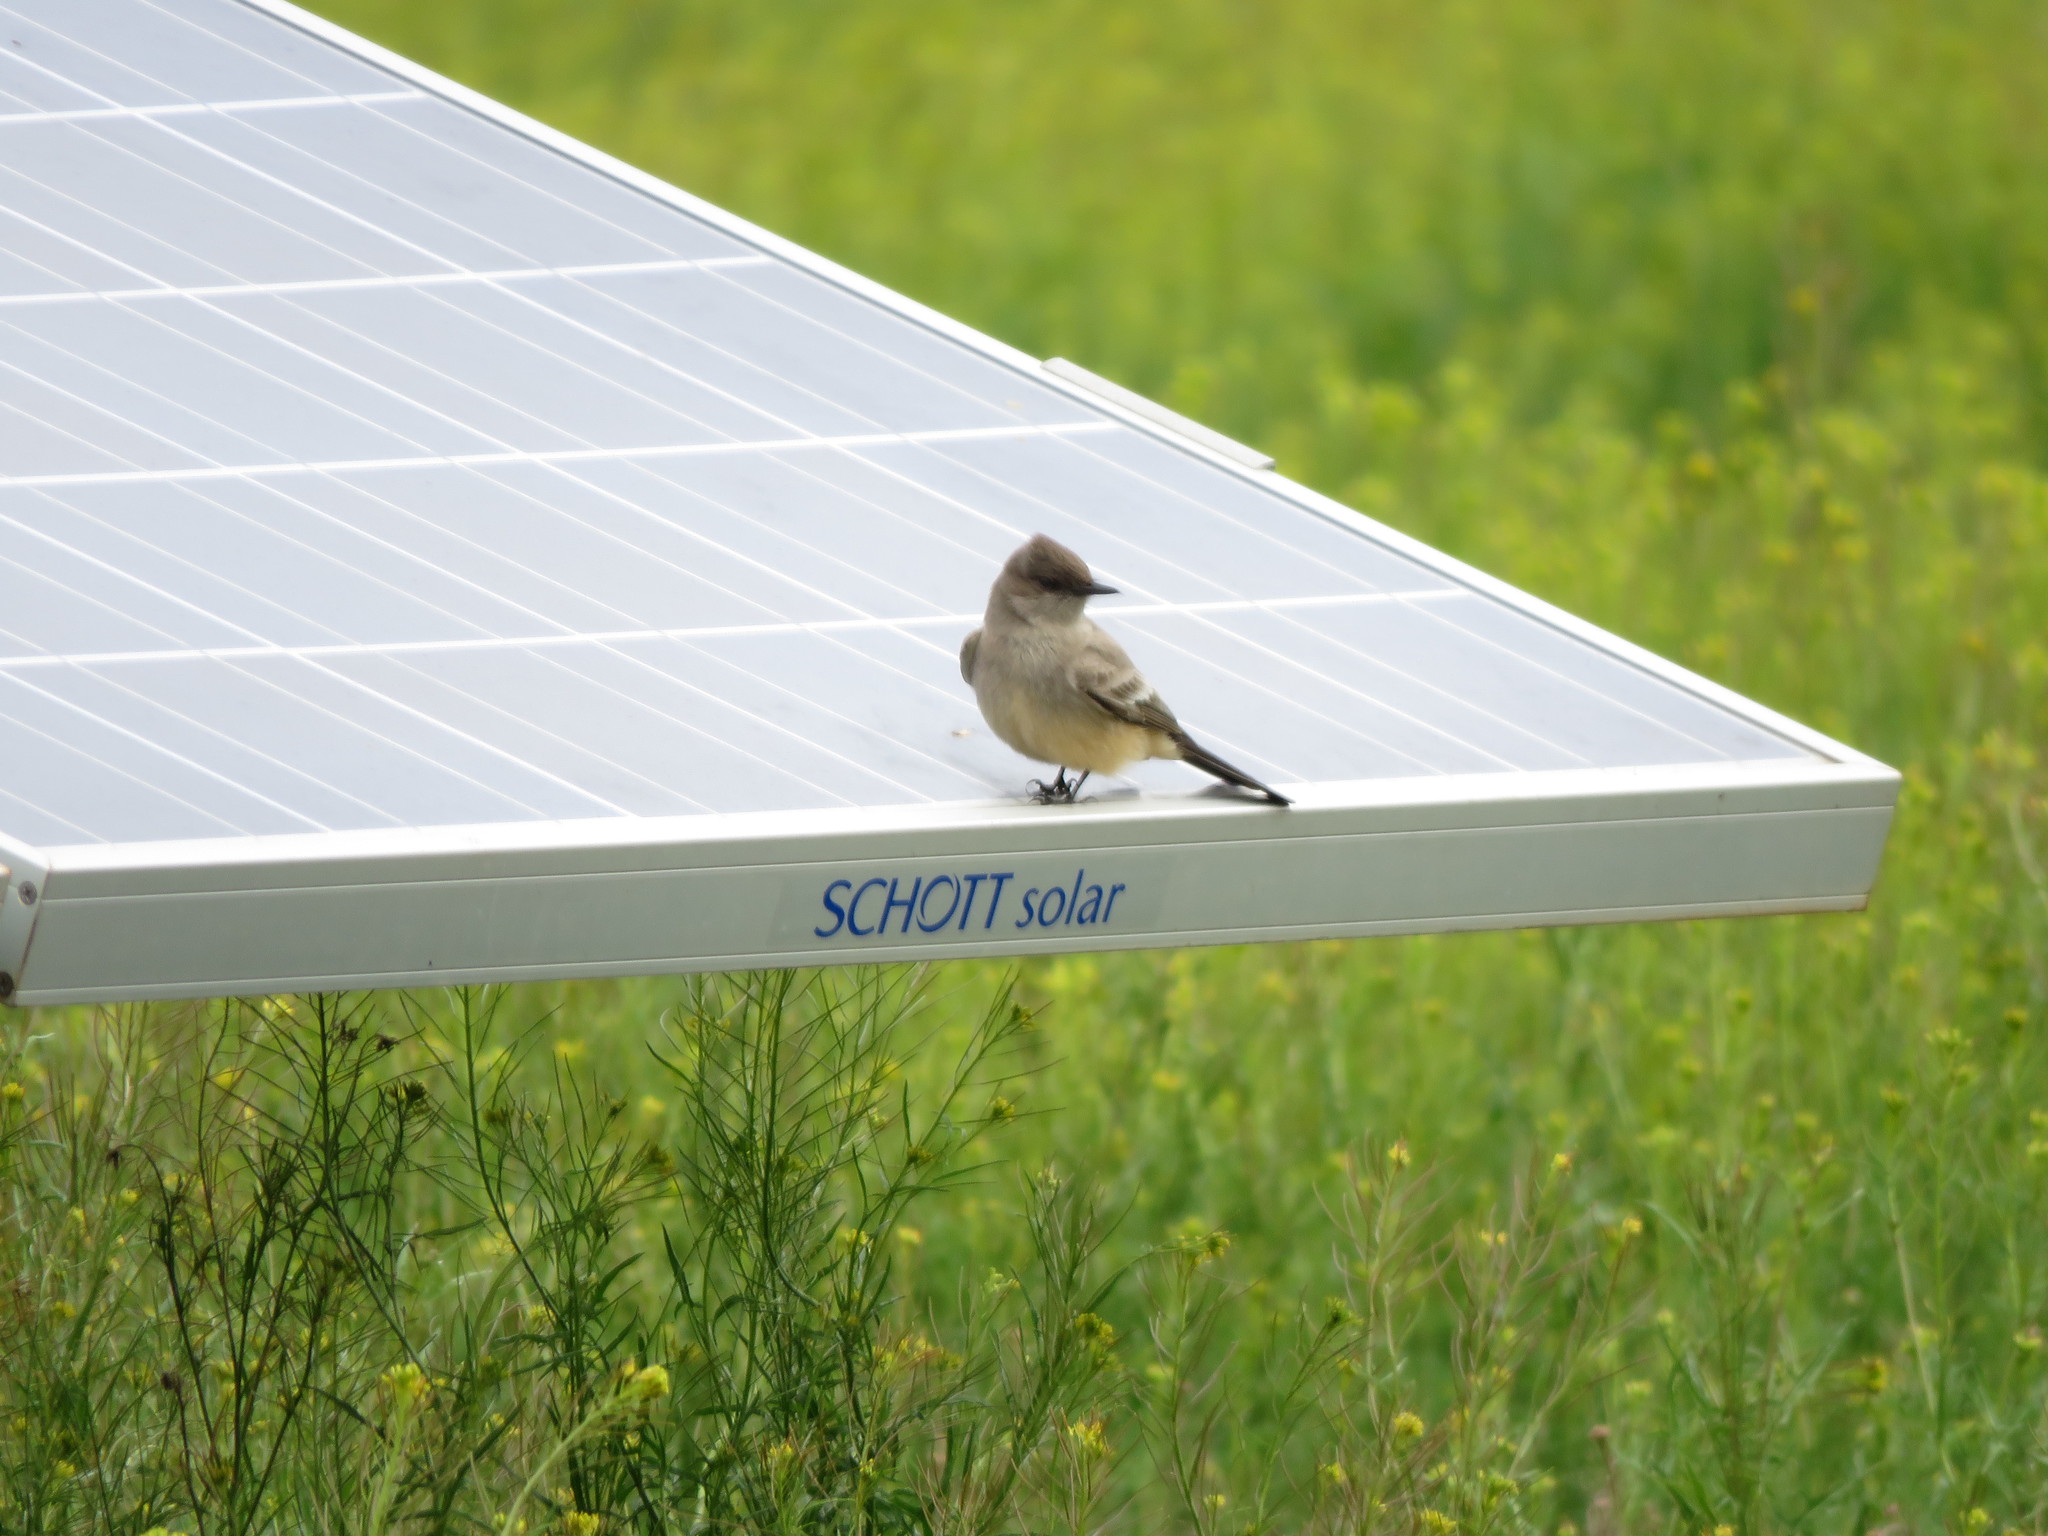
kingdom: Animalia
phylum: Chordata
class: Aves
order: Passeriformes
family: Tyrannidae
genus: Sayornis
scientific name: Sayornis saya
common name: Say's phoebe
